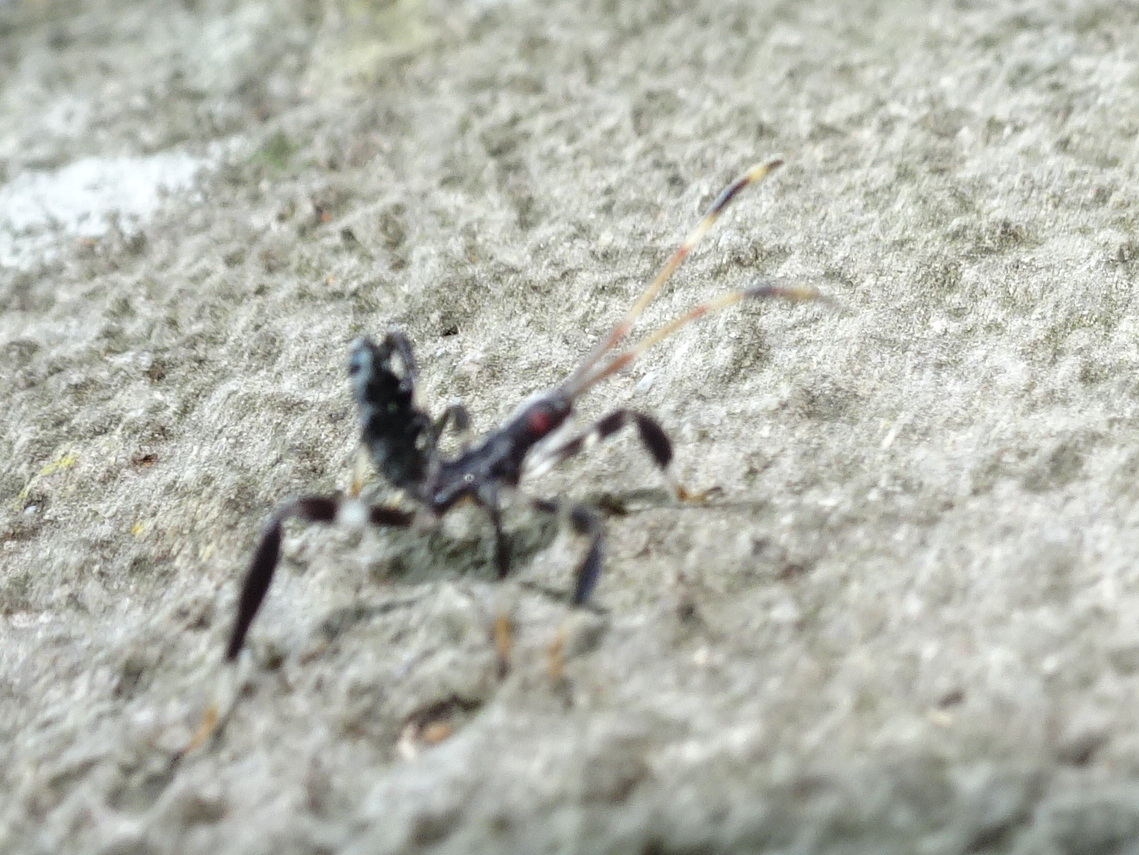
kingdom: Animalia
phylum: Arthropoda
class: Insecta
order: Hemiptera
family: Coreidae
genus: Acanthocephala
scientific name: Acanthocephala terminalis
